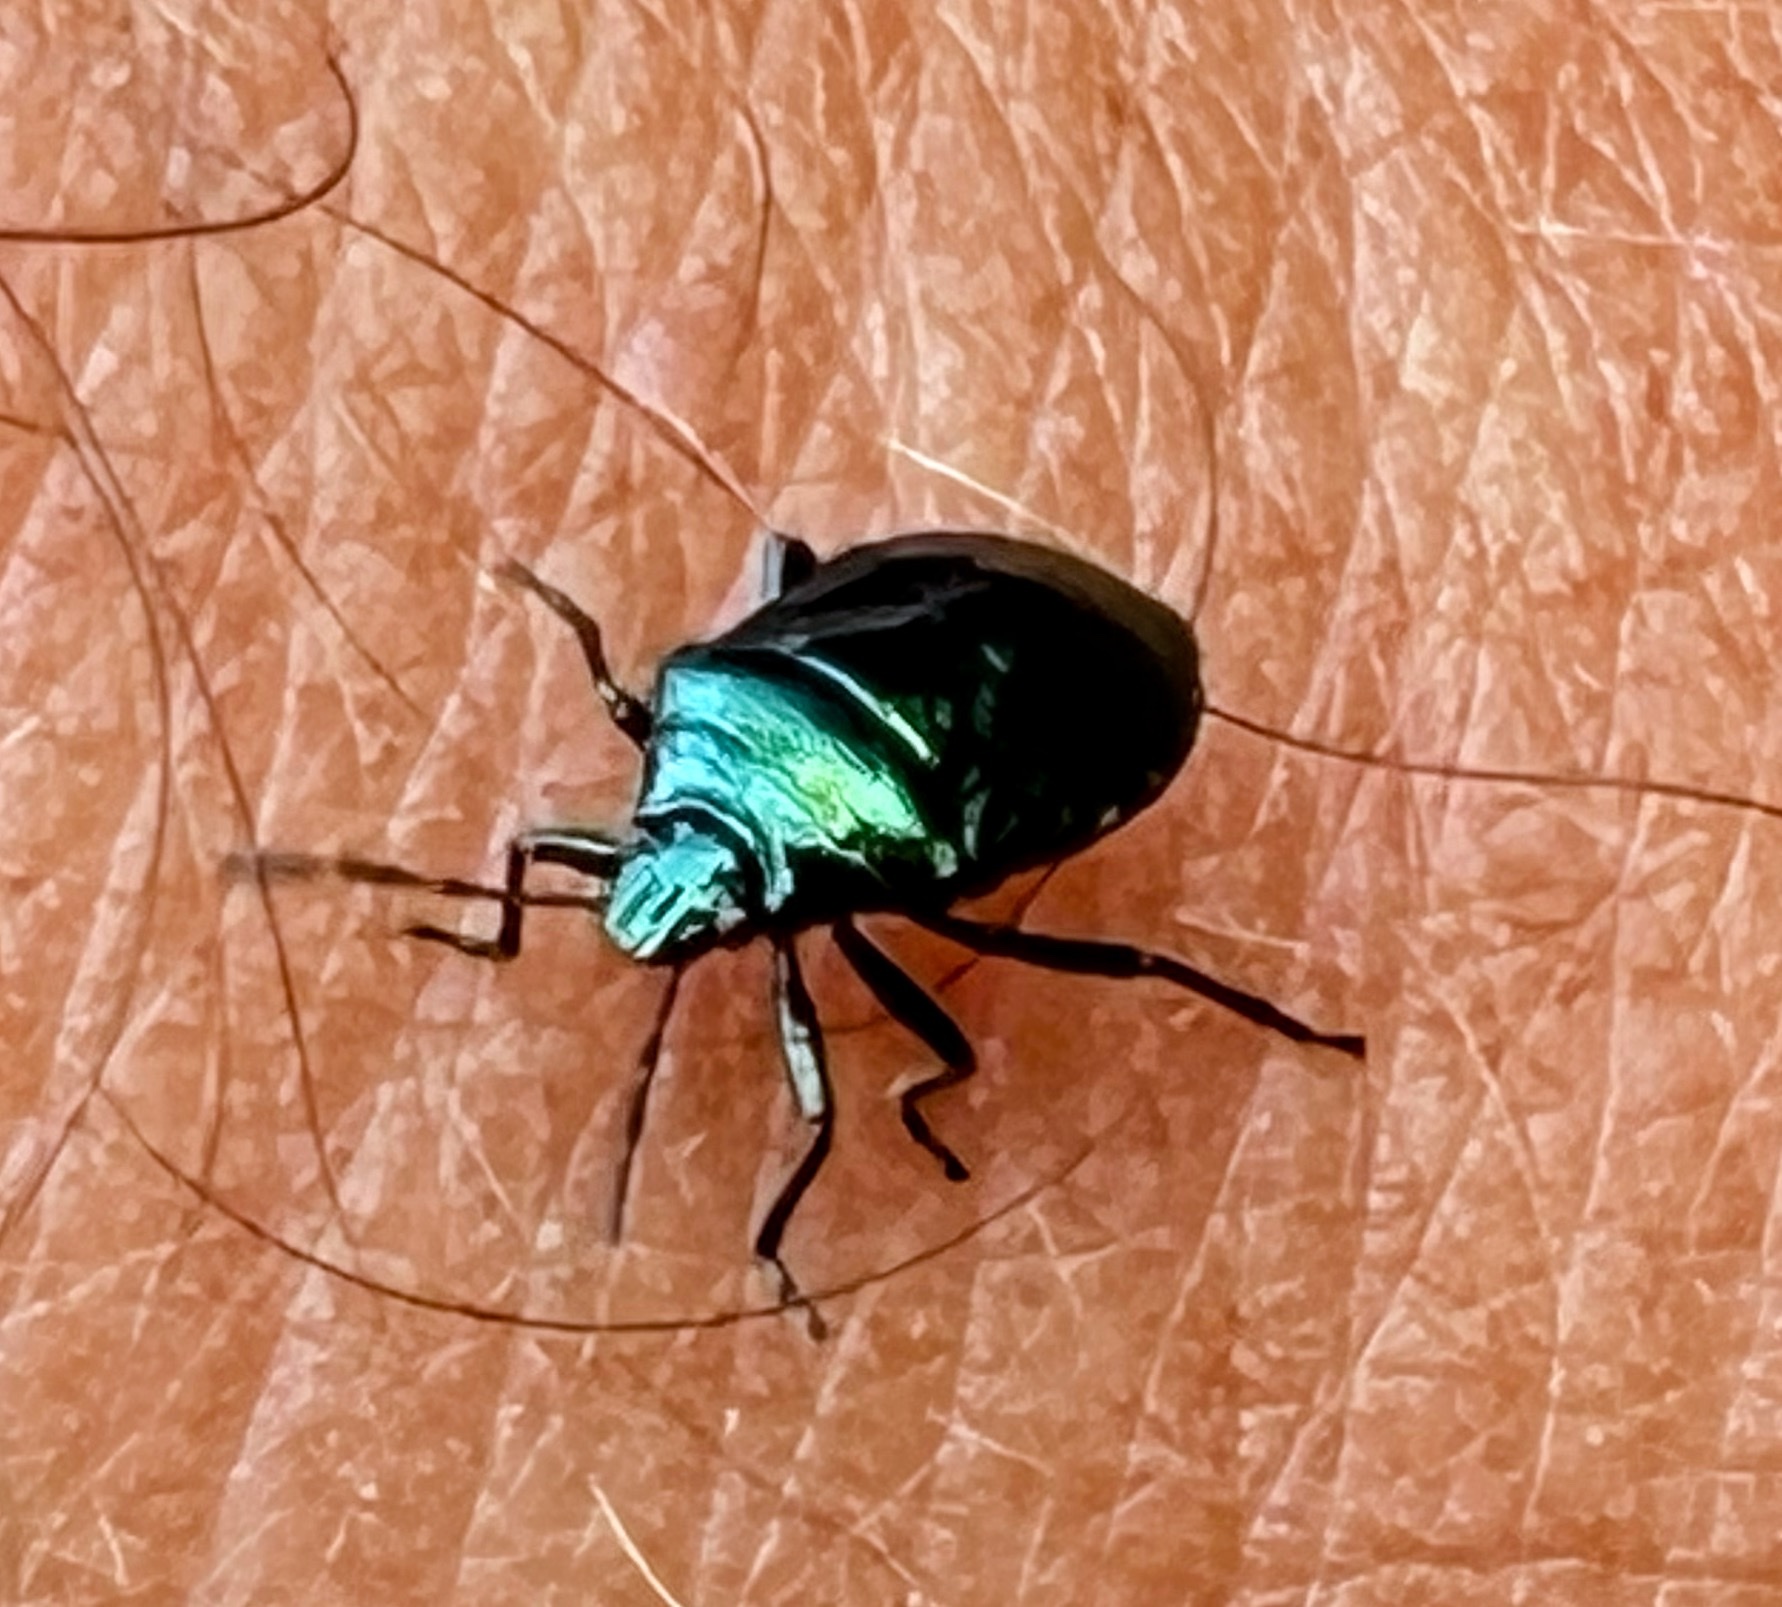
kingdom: Animalia
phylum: Arthropoda
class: Insecta
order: Hemiptera
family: Pentatomidae
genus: Zicrona
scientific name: Zicrona caerulea
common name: Blue shieldbug
